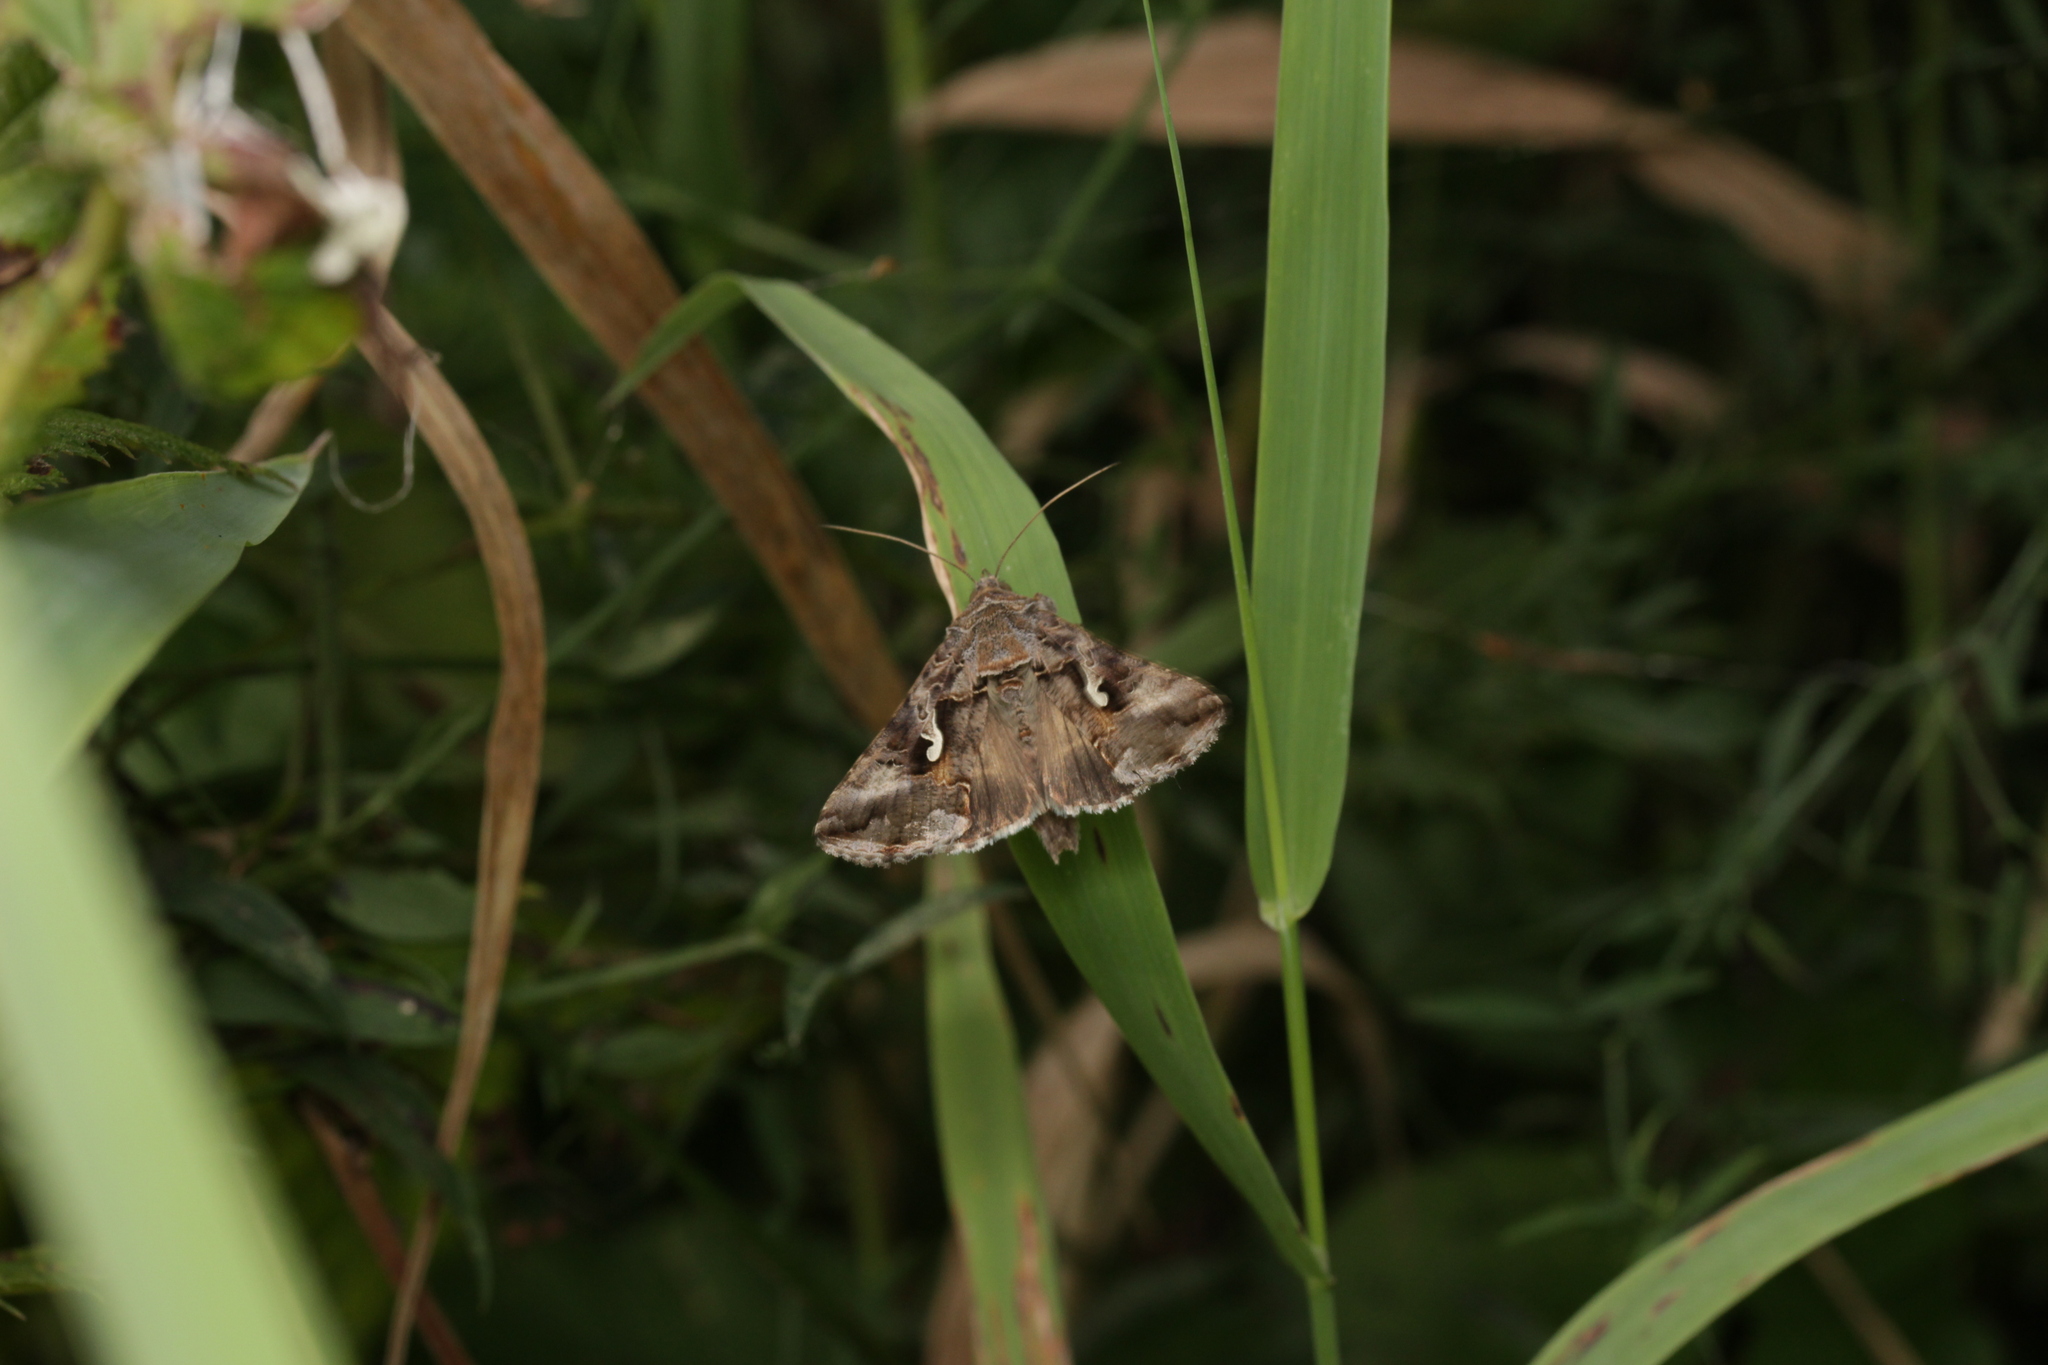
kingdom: Animalia
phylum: Arthropoda
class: Insecta
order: Lepidoptera
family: Noctuidae
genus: Autographa
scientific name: Autographa gamma
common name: Silver y
